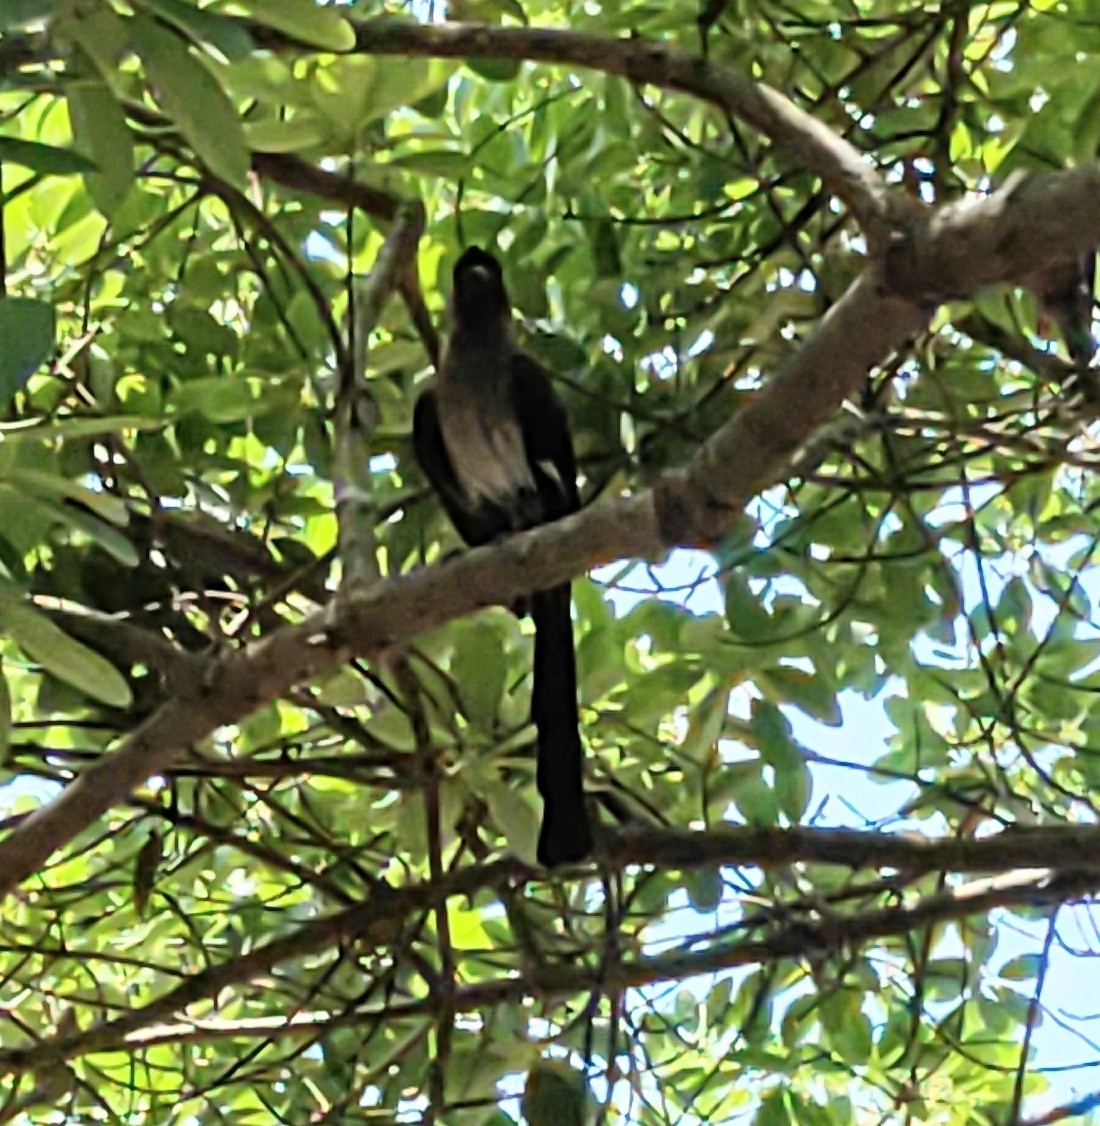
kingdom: Animalia
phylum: Chordata
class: Aves
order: Passeriformes
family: Corvidae
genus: Dendrocitta
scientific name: Dendrocitta formosae
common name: Grey treepie
